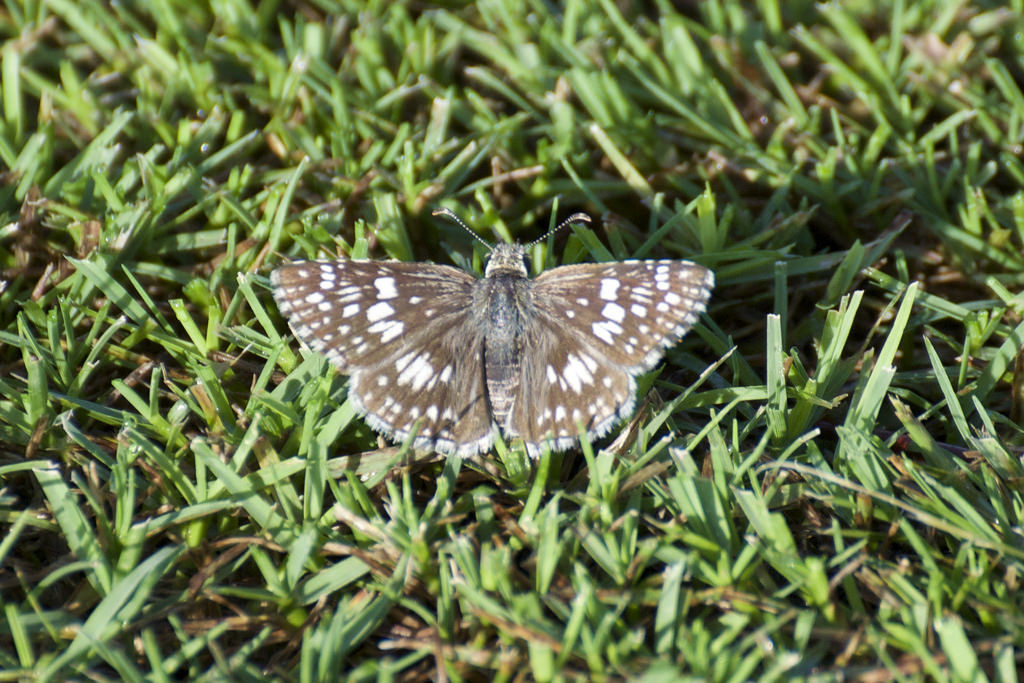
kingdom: Animalia
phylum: Arthropoda
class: Insecta
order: Lepidoptera
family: Hesperiidae
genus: Burnsius
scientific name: Burnsius albezens
